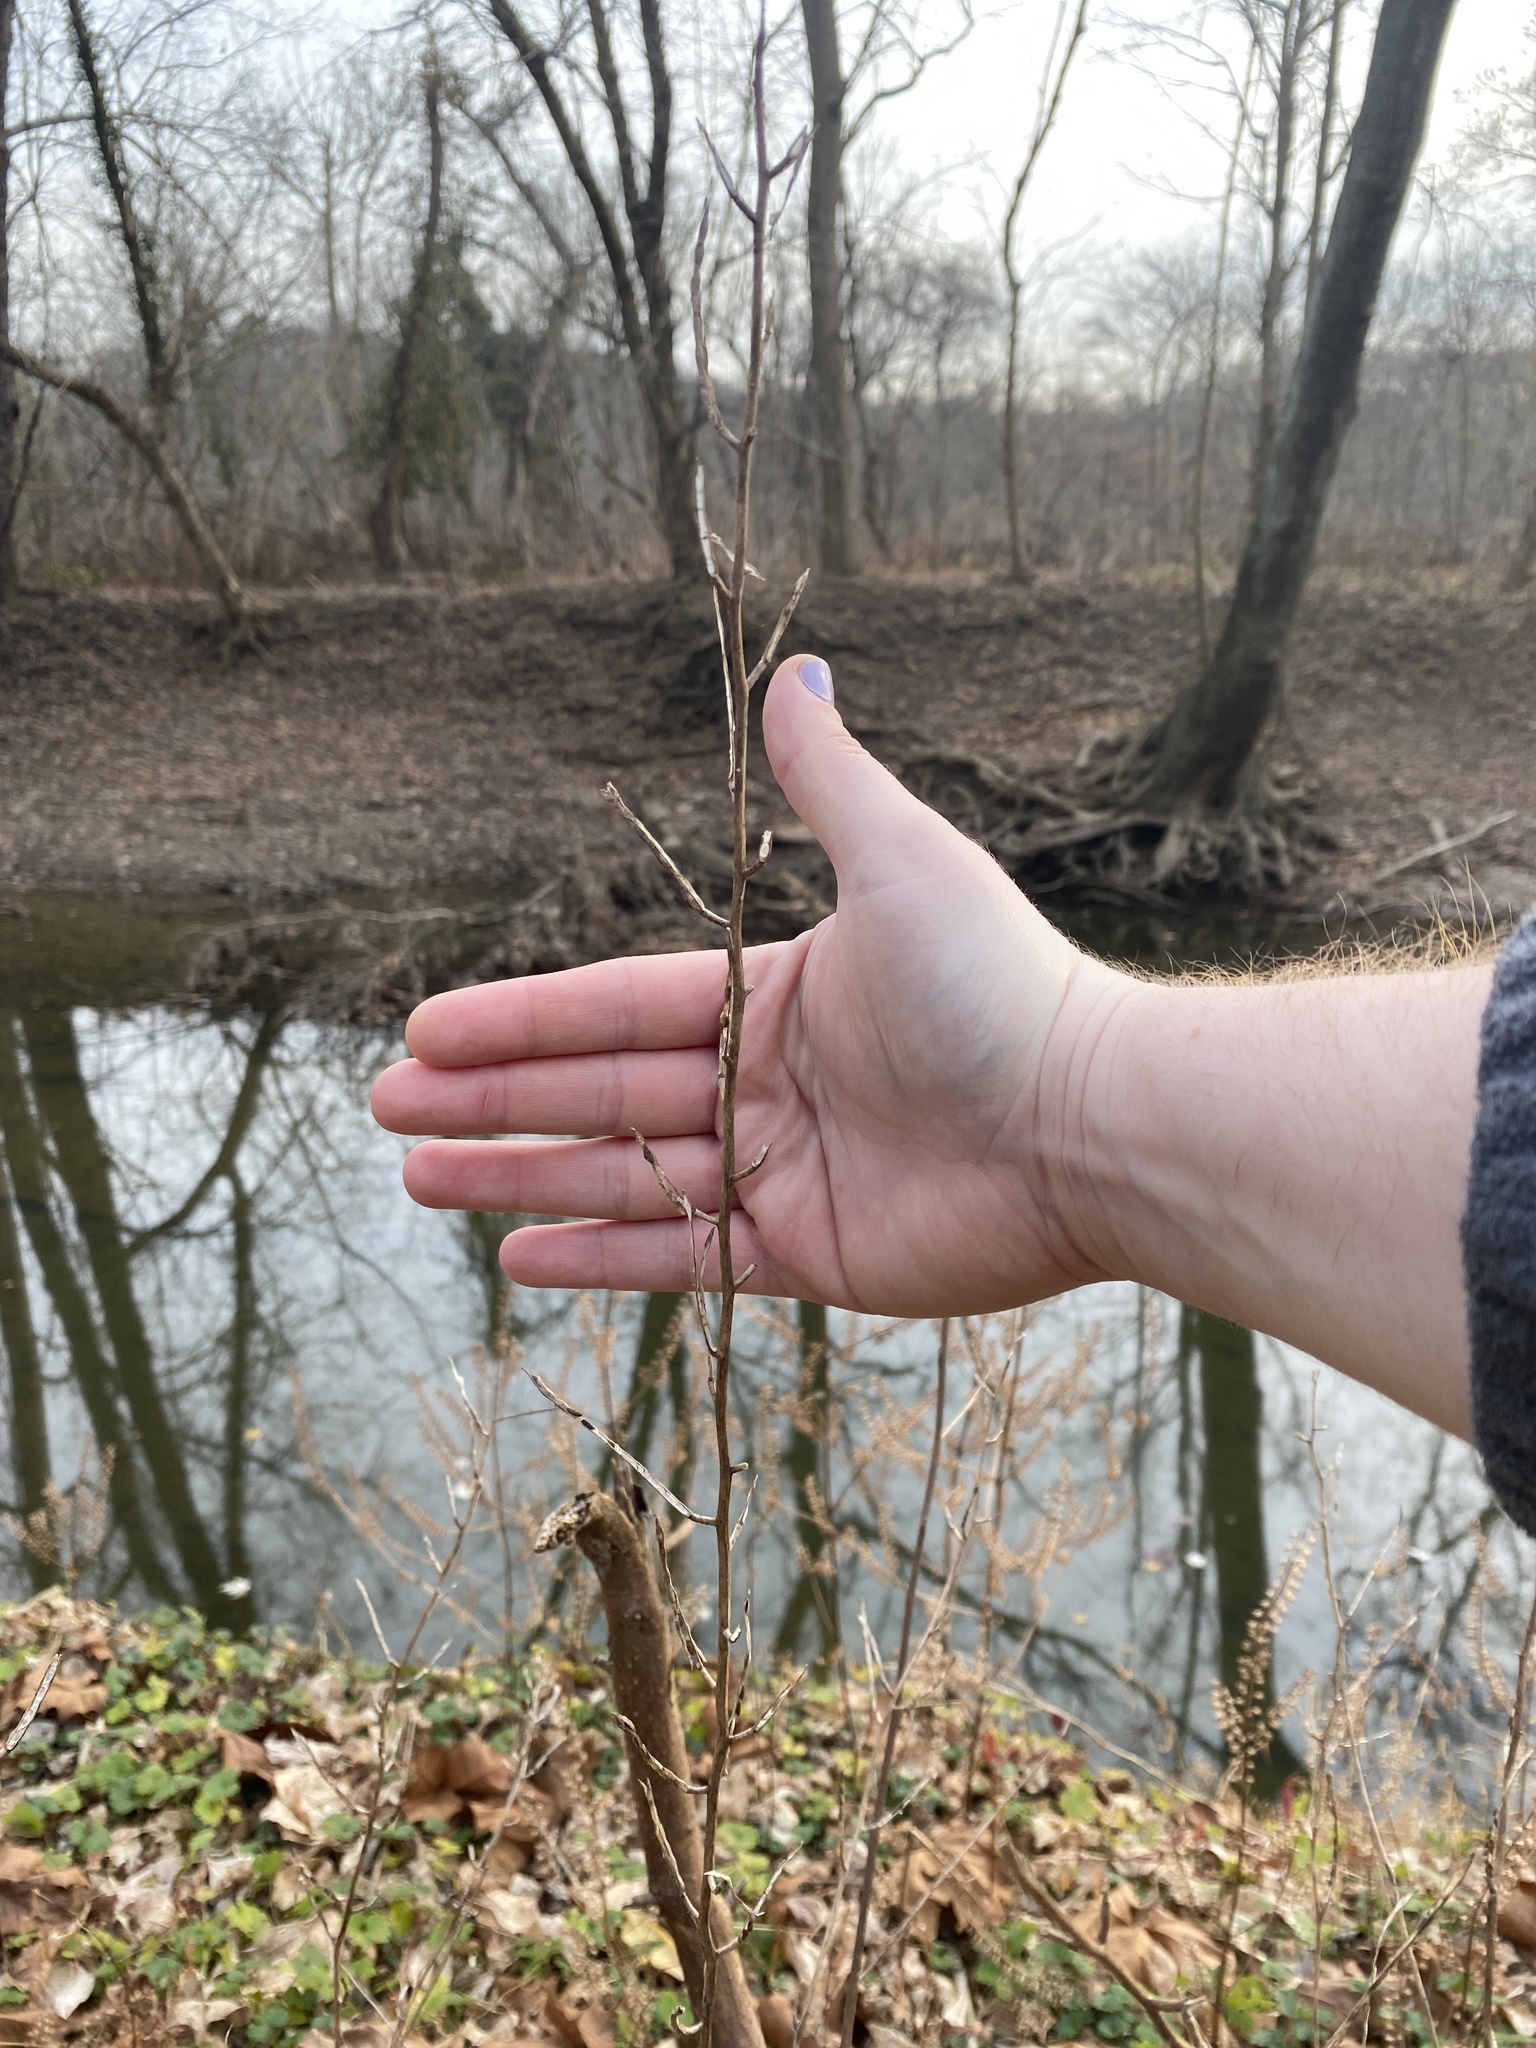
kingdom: Plantae
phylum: Tracheophyta
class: Magnoliopsida
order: Brassicales
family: Brassicaceae
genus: Alliaria
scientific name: Alliaria petiolata
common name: Garlic mustard
